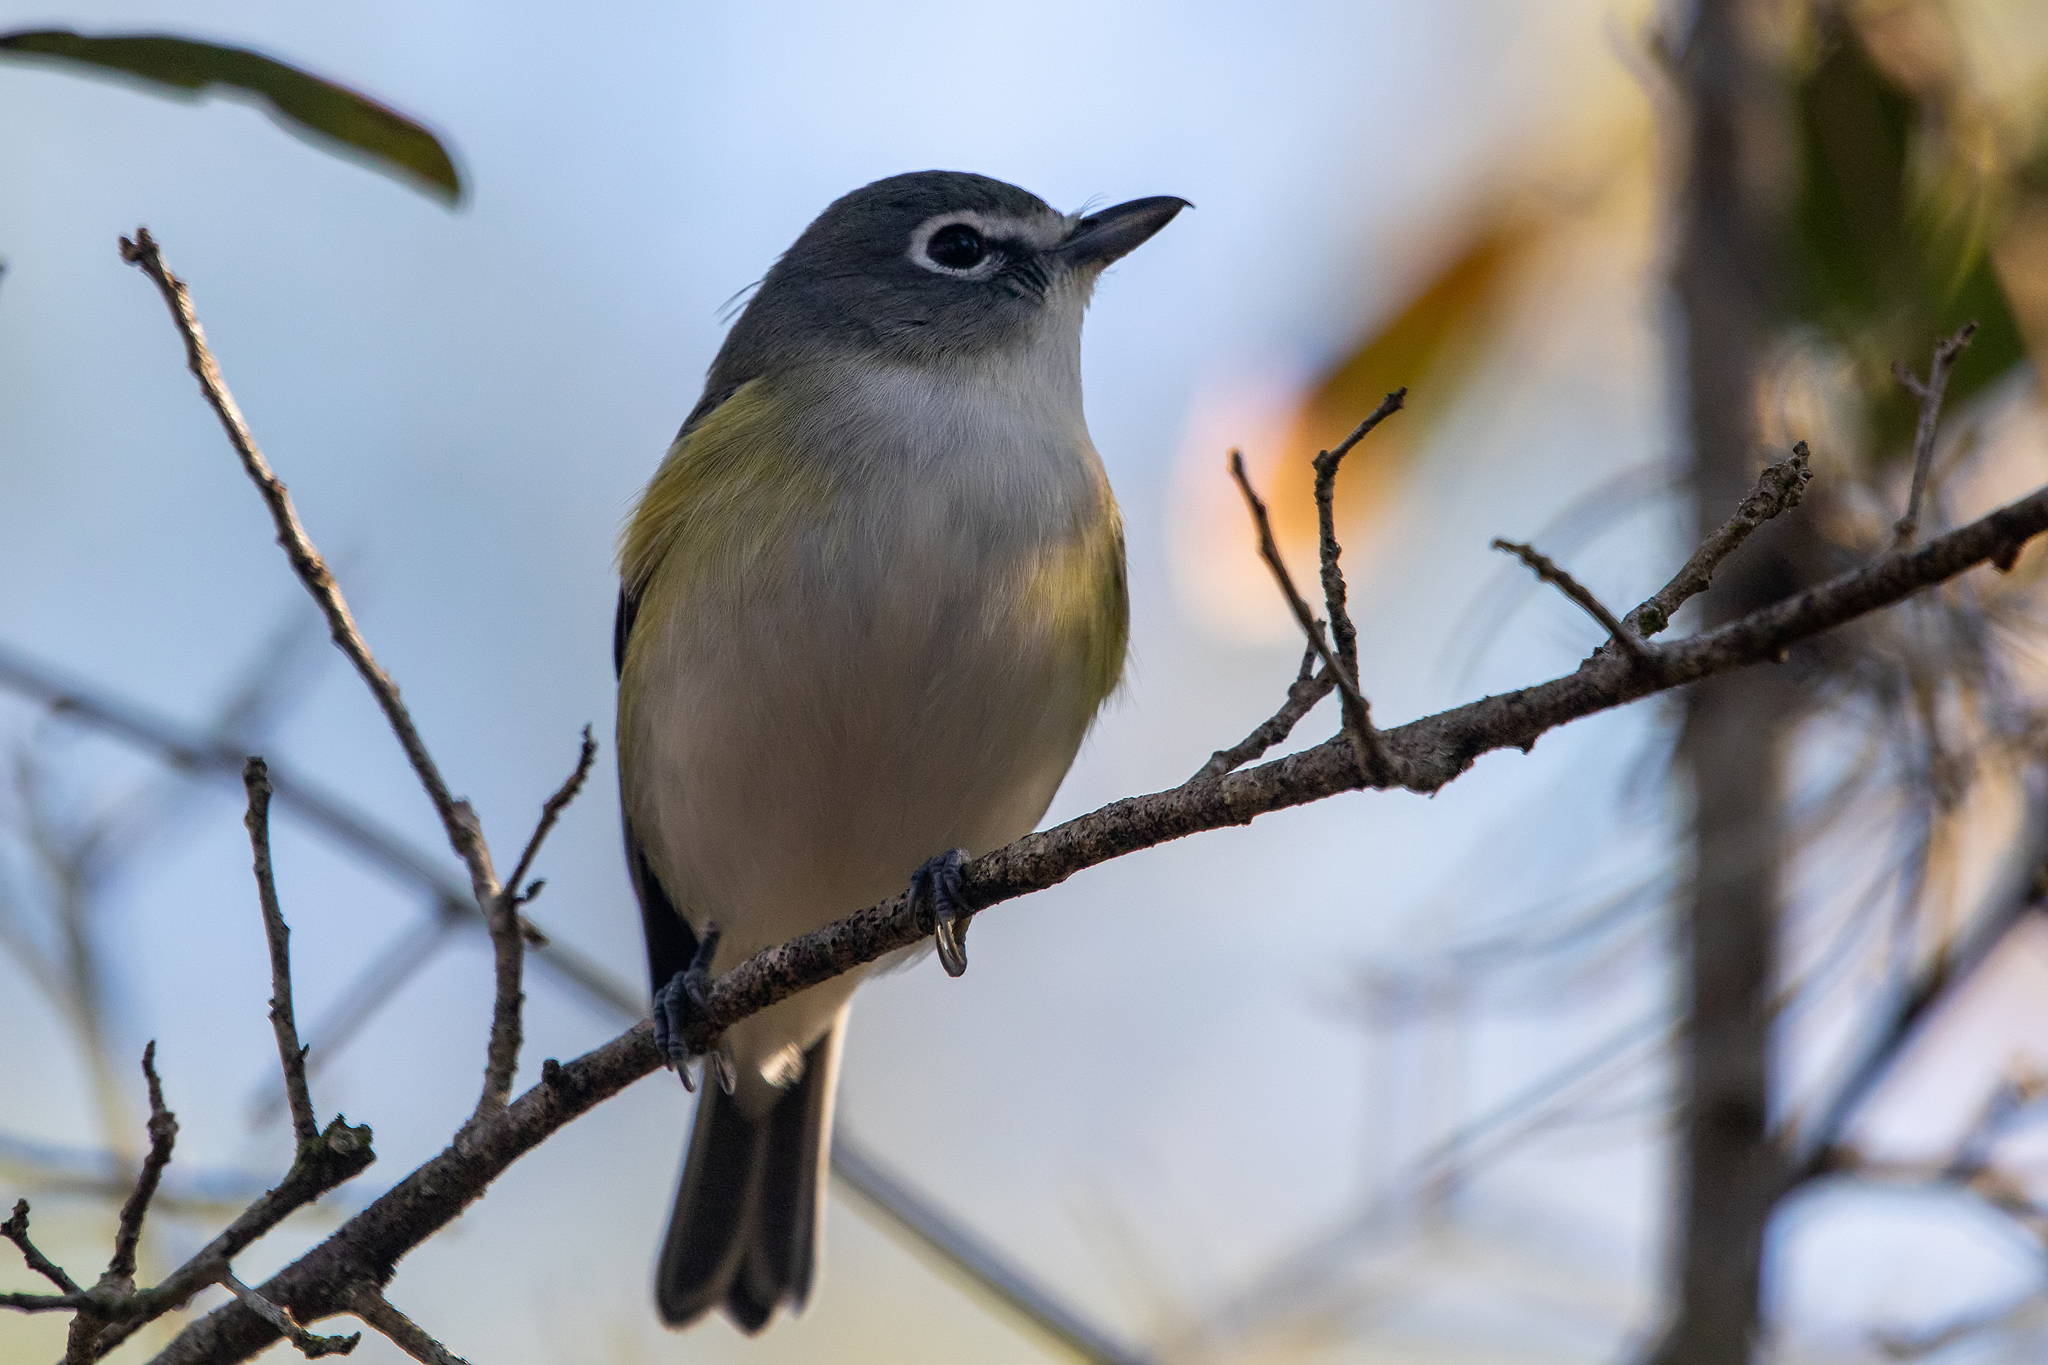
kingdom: Animalia
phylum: Chordata
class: Aves
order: Passeriformes
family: Vireonidae
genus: Vireo
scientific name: Vireo solitarius
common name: Blue-headed vireo
